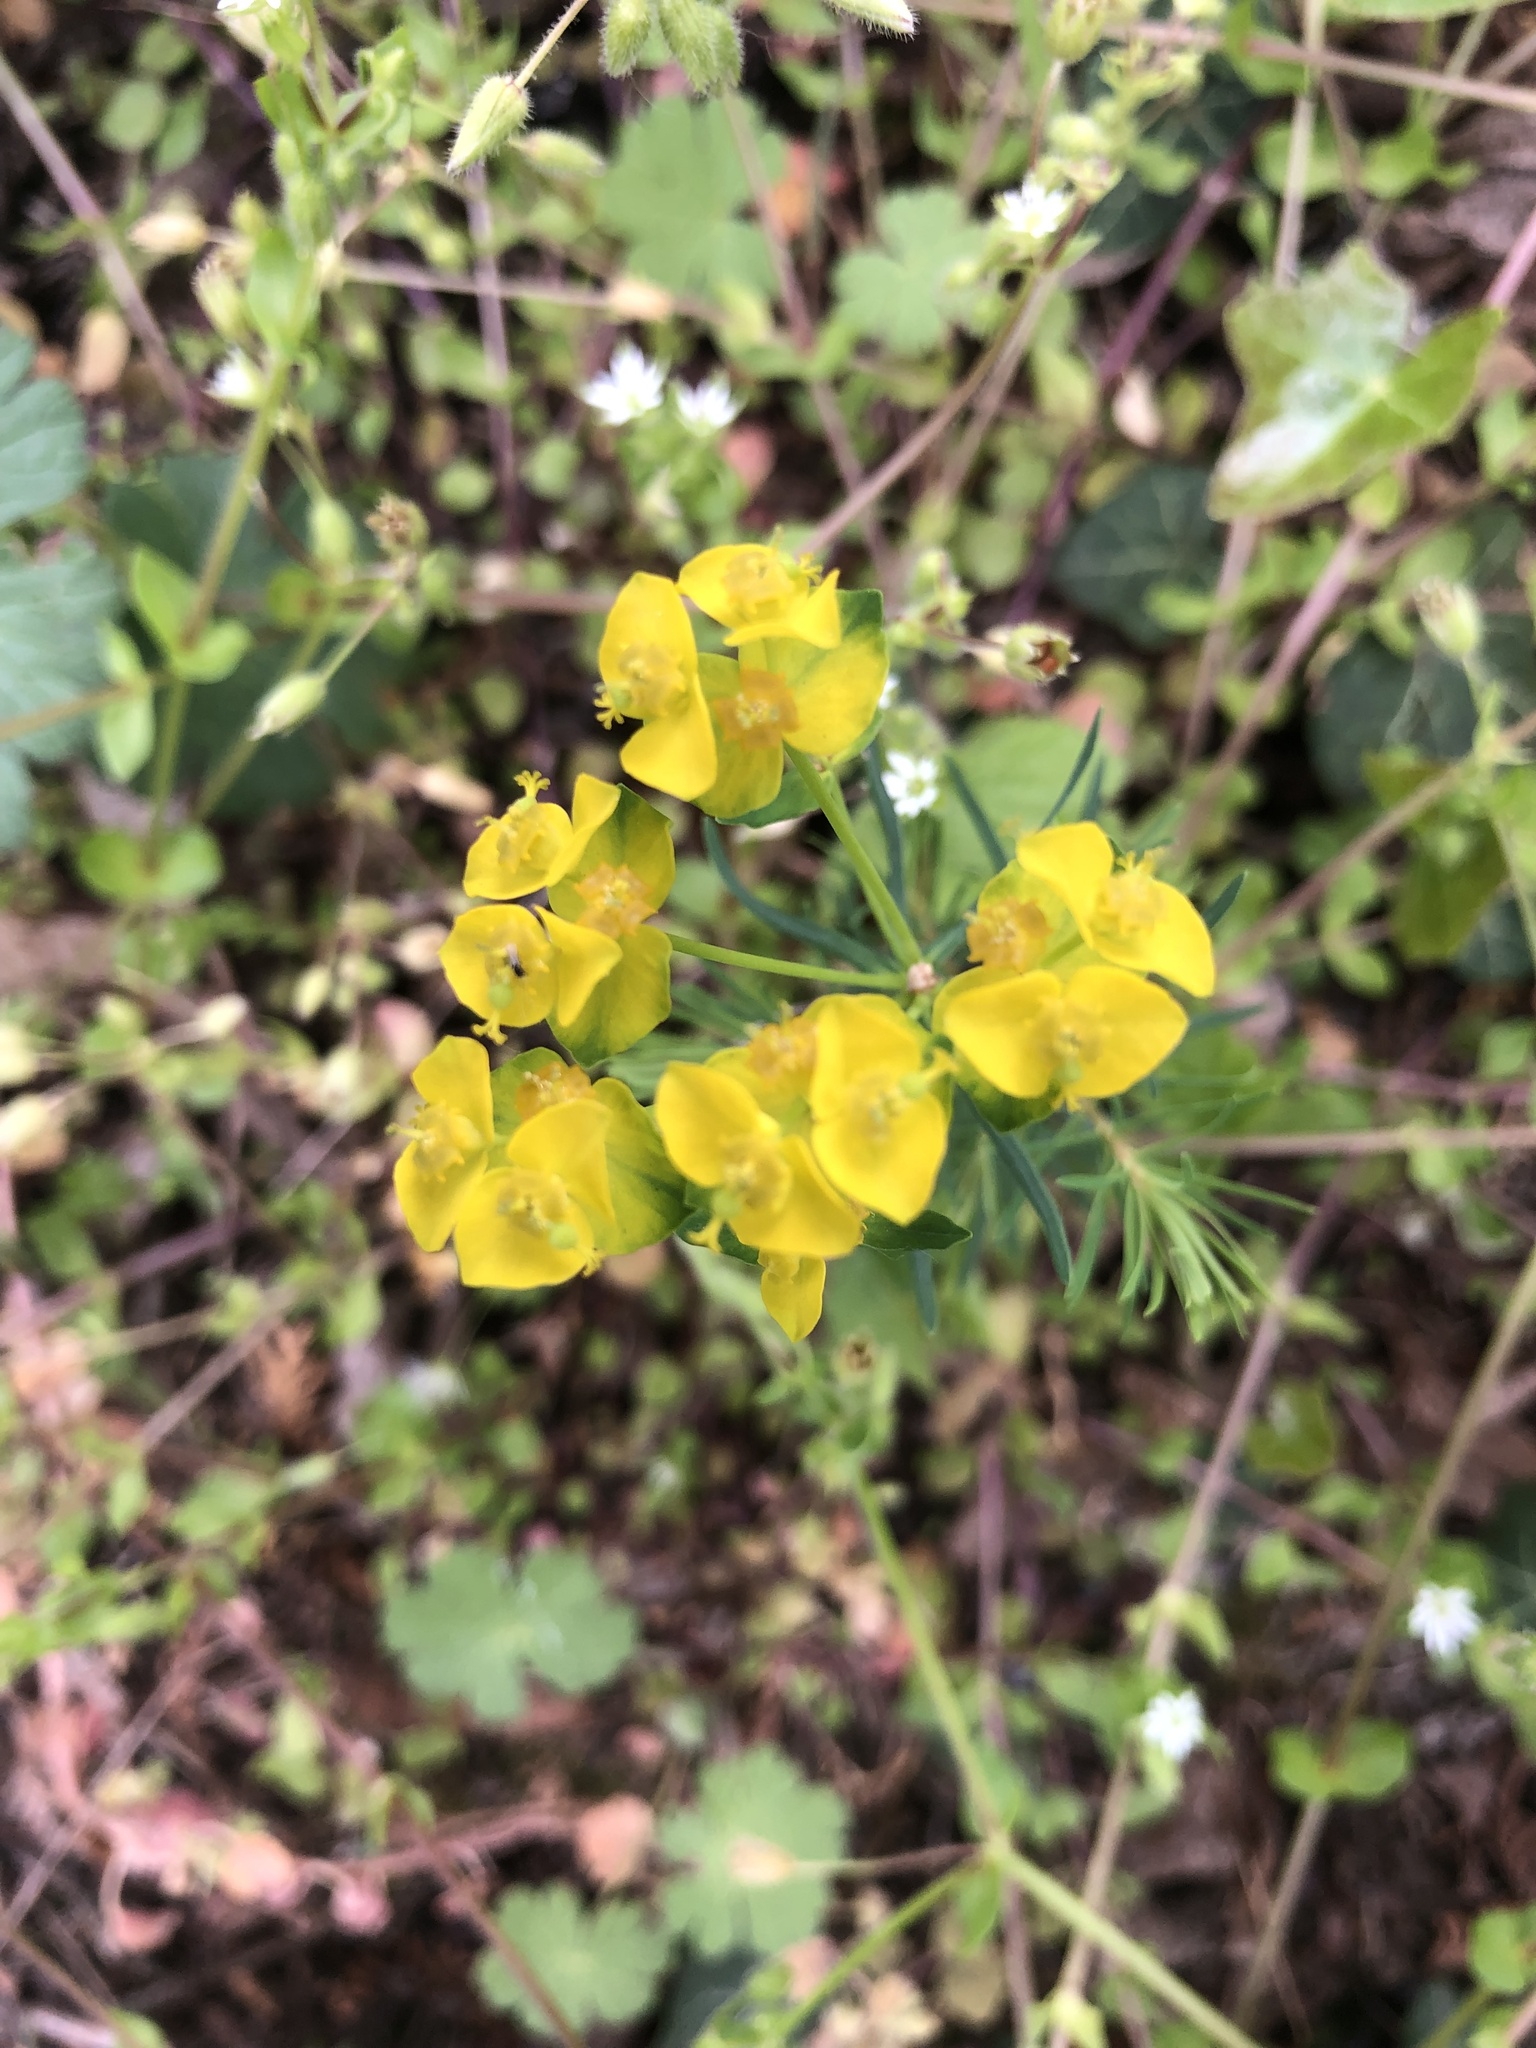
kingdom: Plantae
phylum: Tracheophyta
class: Magnoliopsida
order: Malpighiales
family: Euphorbiaceae
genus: Euphorbia
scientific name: Euphorbia cyparissias
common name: Cypress spurge
